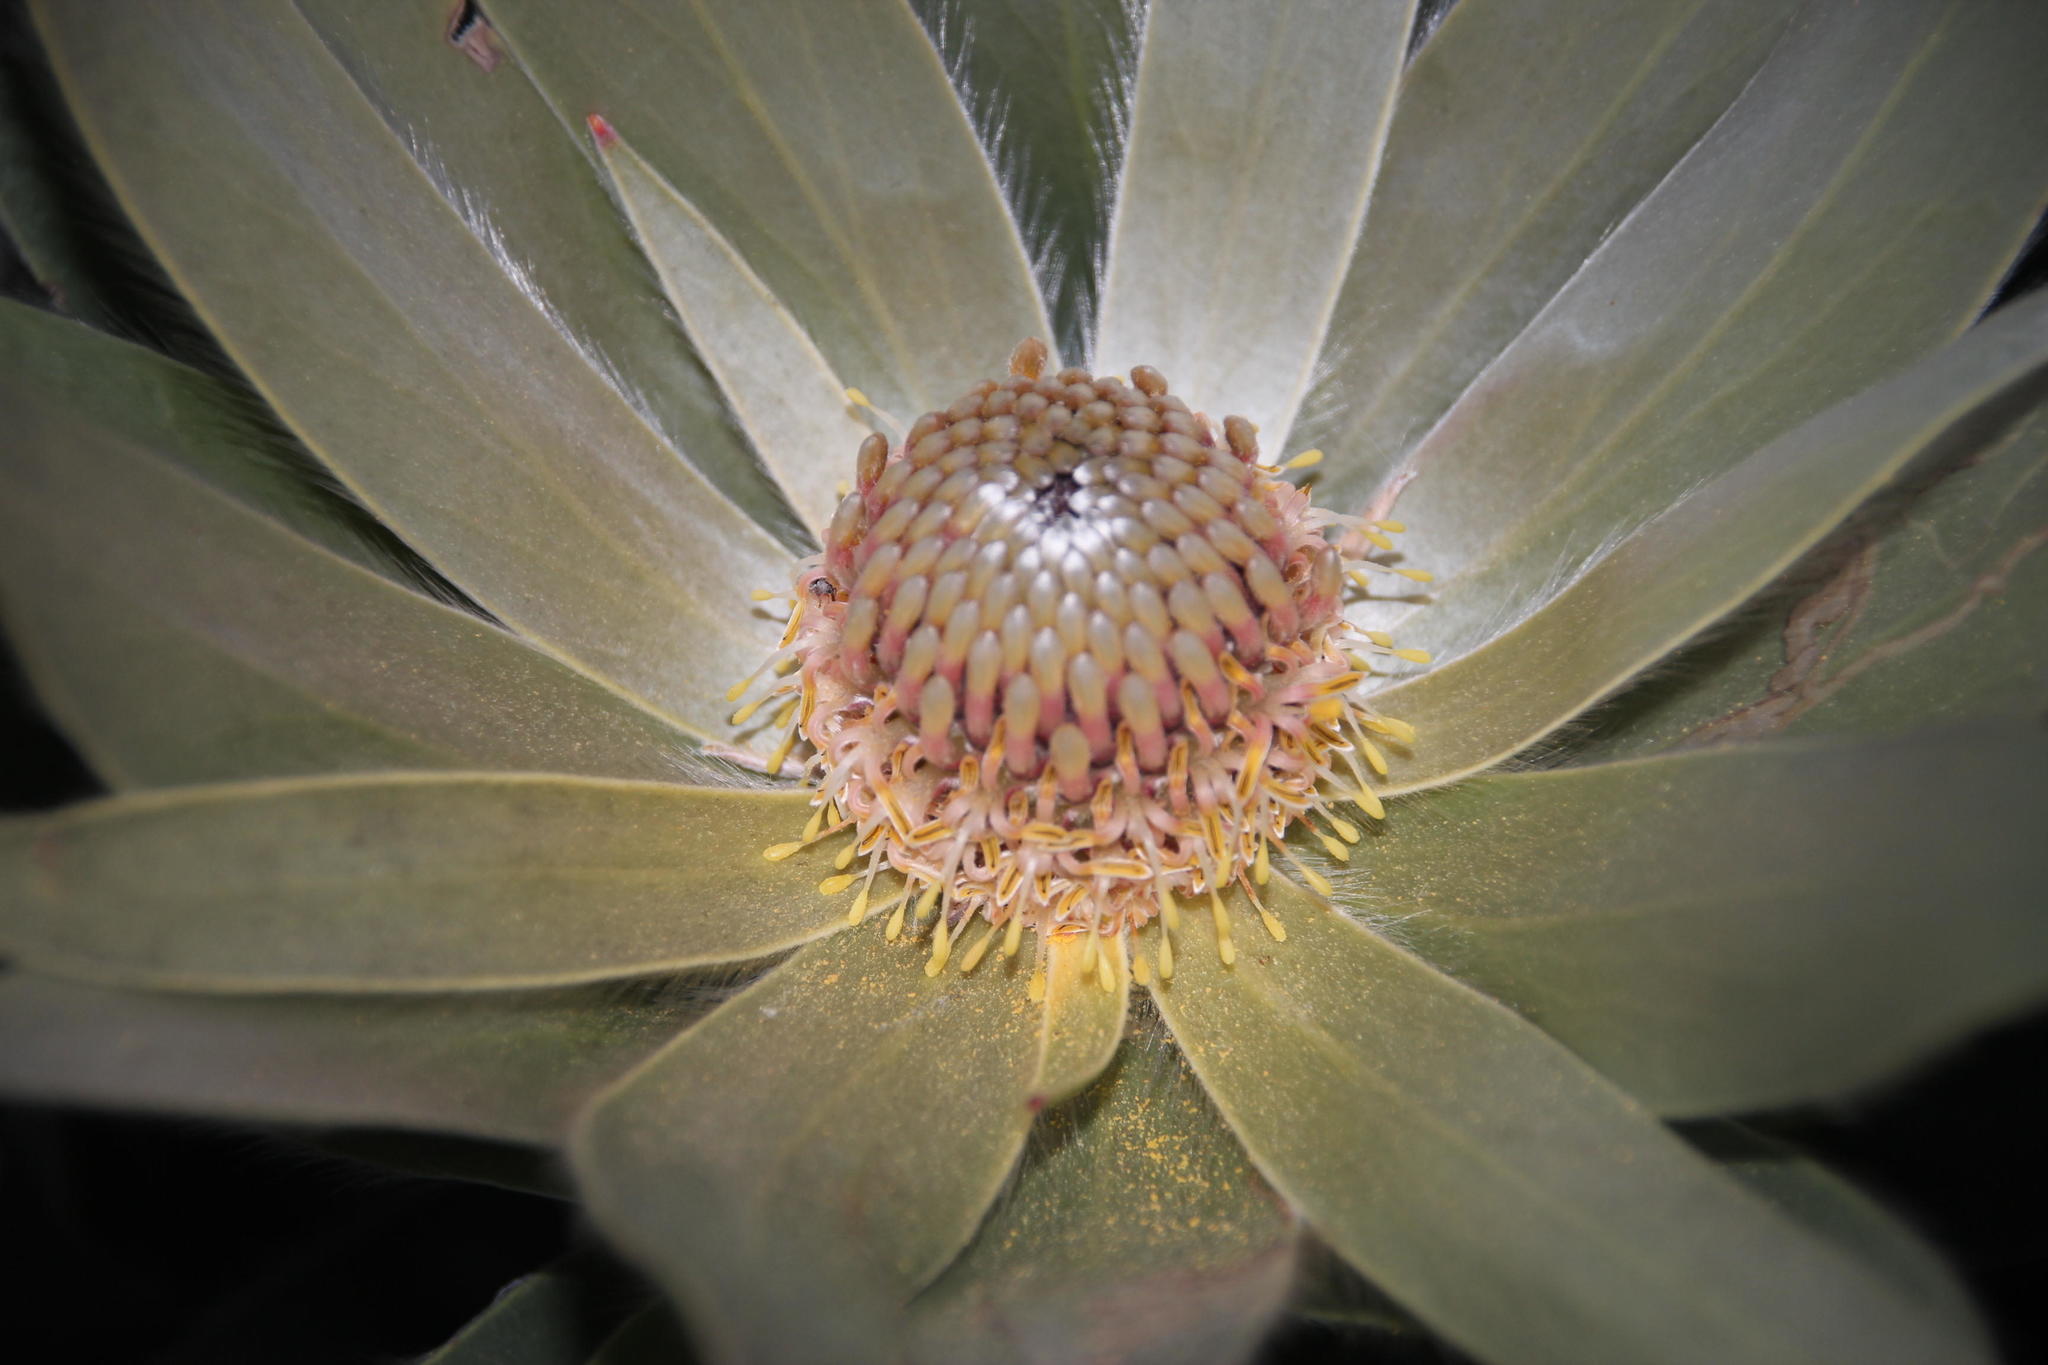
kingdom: Plantae
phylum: Tracheophyta
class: Magnoliopsida
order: Proteales
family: Proteaceae
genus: Leucadendron
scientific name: Leucadendron argenteum
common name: Cape silver tree
